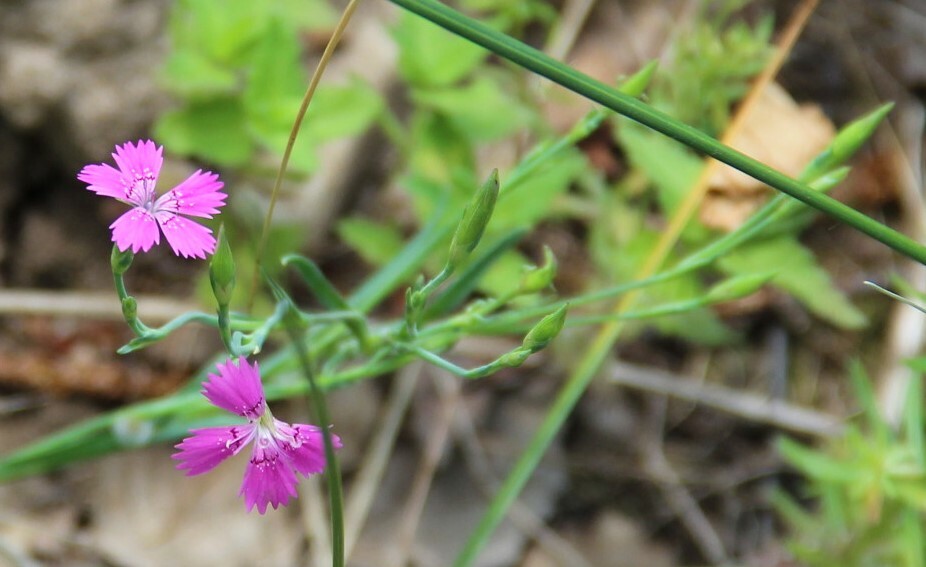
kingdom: Plantae
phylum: Tracheophyta
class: Magnoliopsida
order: Caryophyllales
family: Caryophyllaceae
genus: Dianthus
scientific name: Dianthus deltoides
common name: Maiden pink
